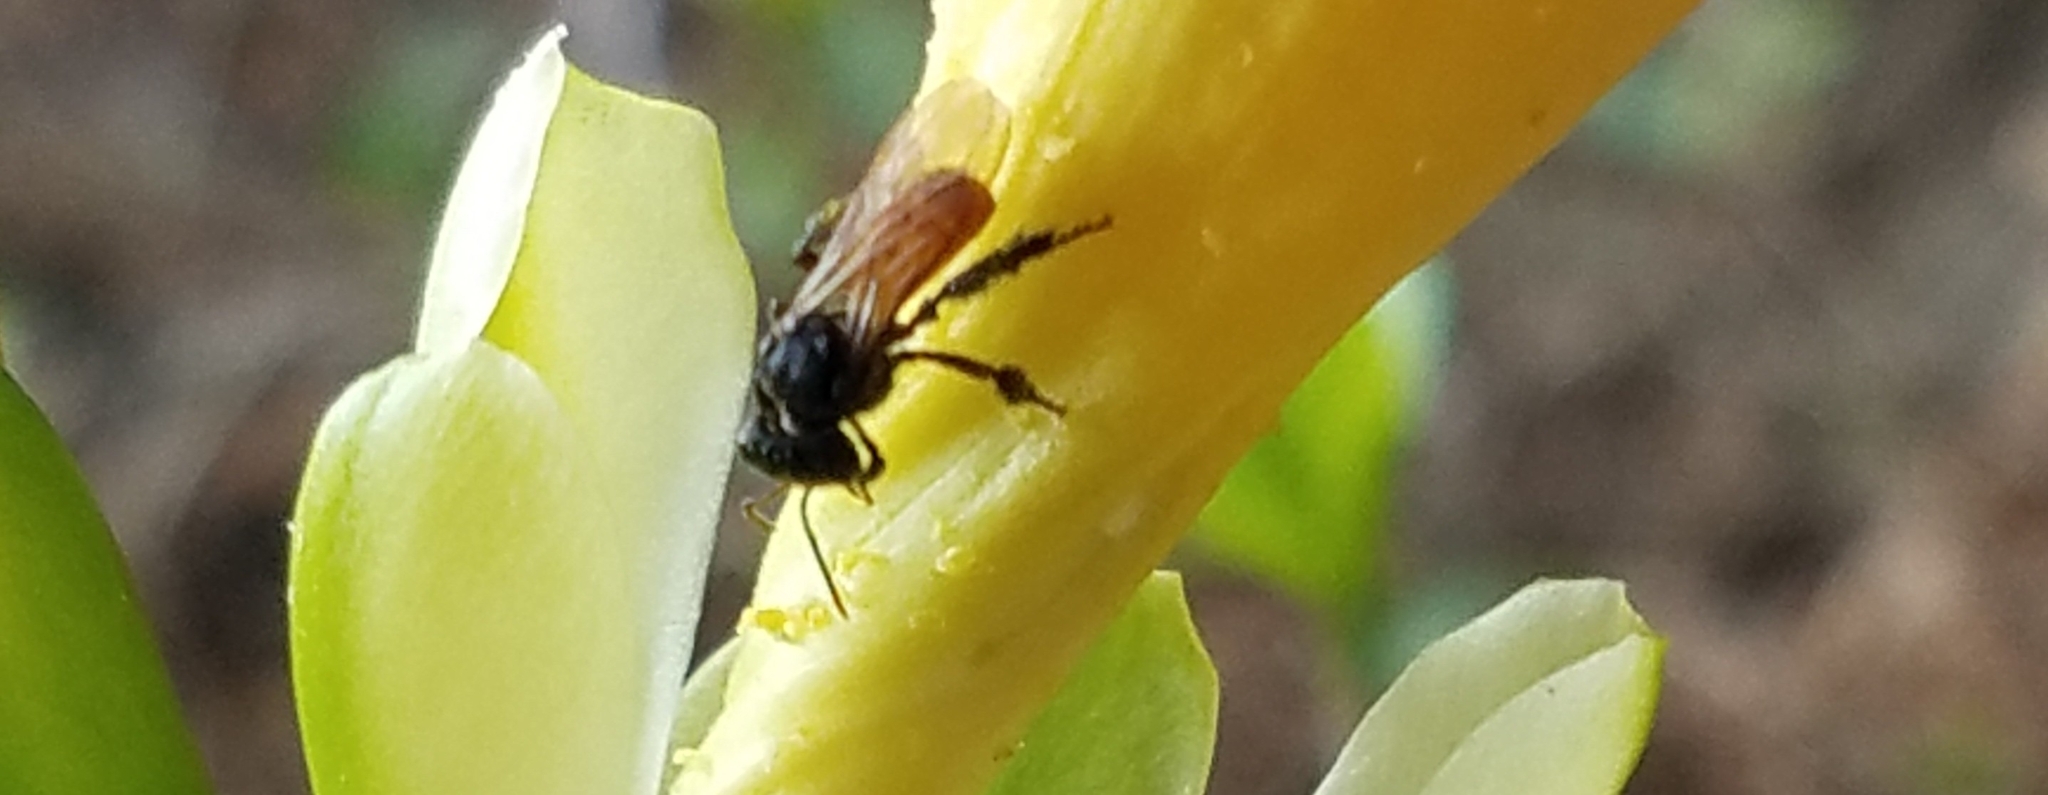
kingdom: Animalia
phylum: Arthropoda
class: Insecta
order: Hymenoptera
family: Apidae
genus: Trigona
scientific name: Trigona fulviventris
